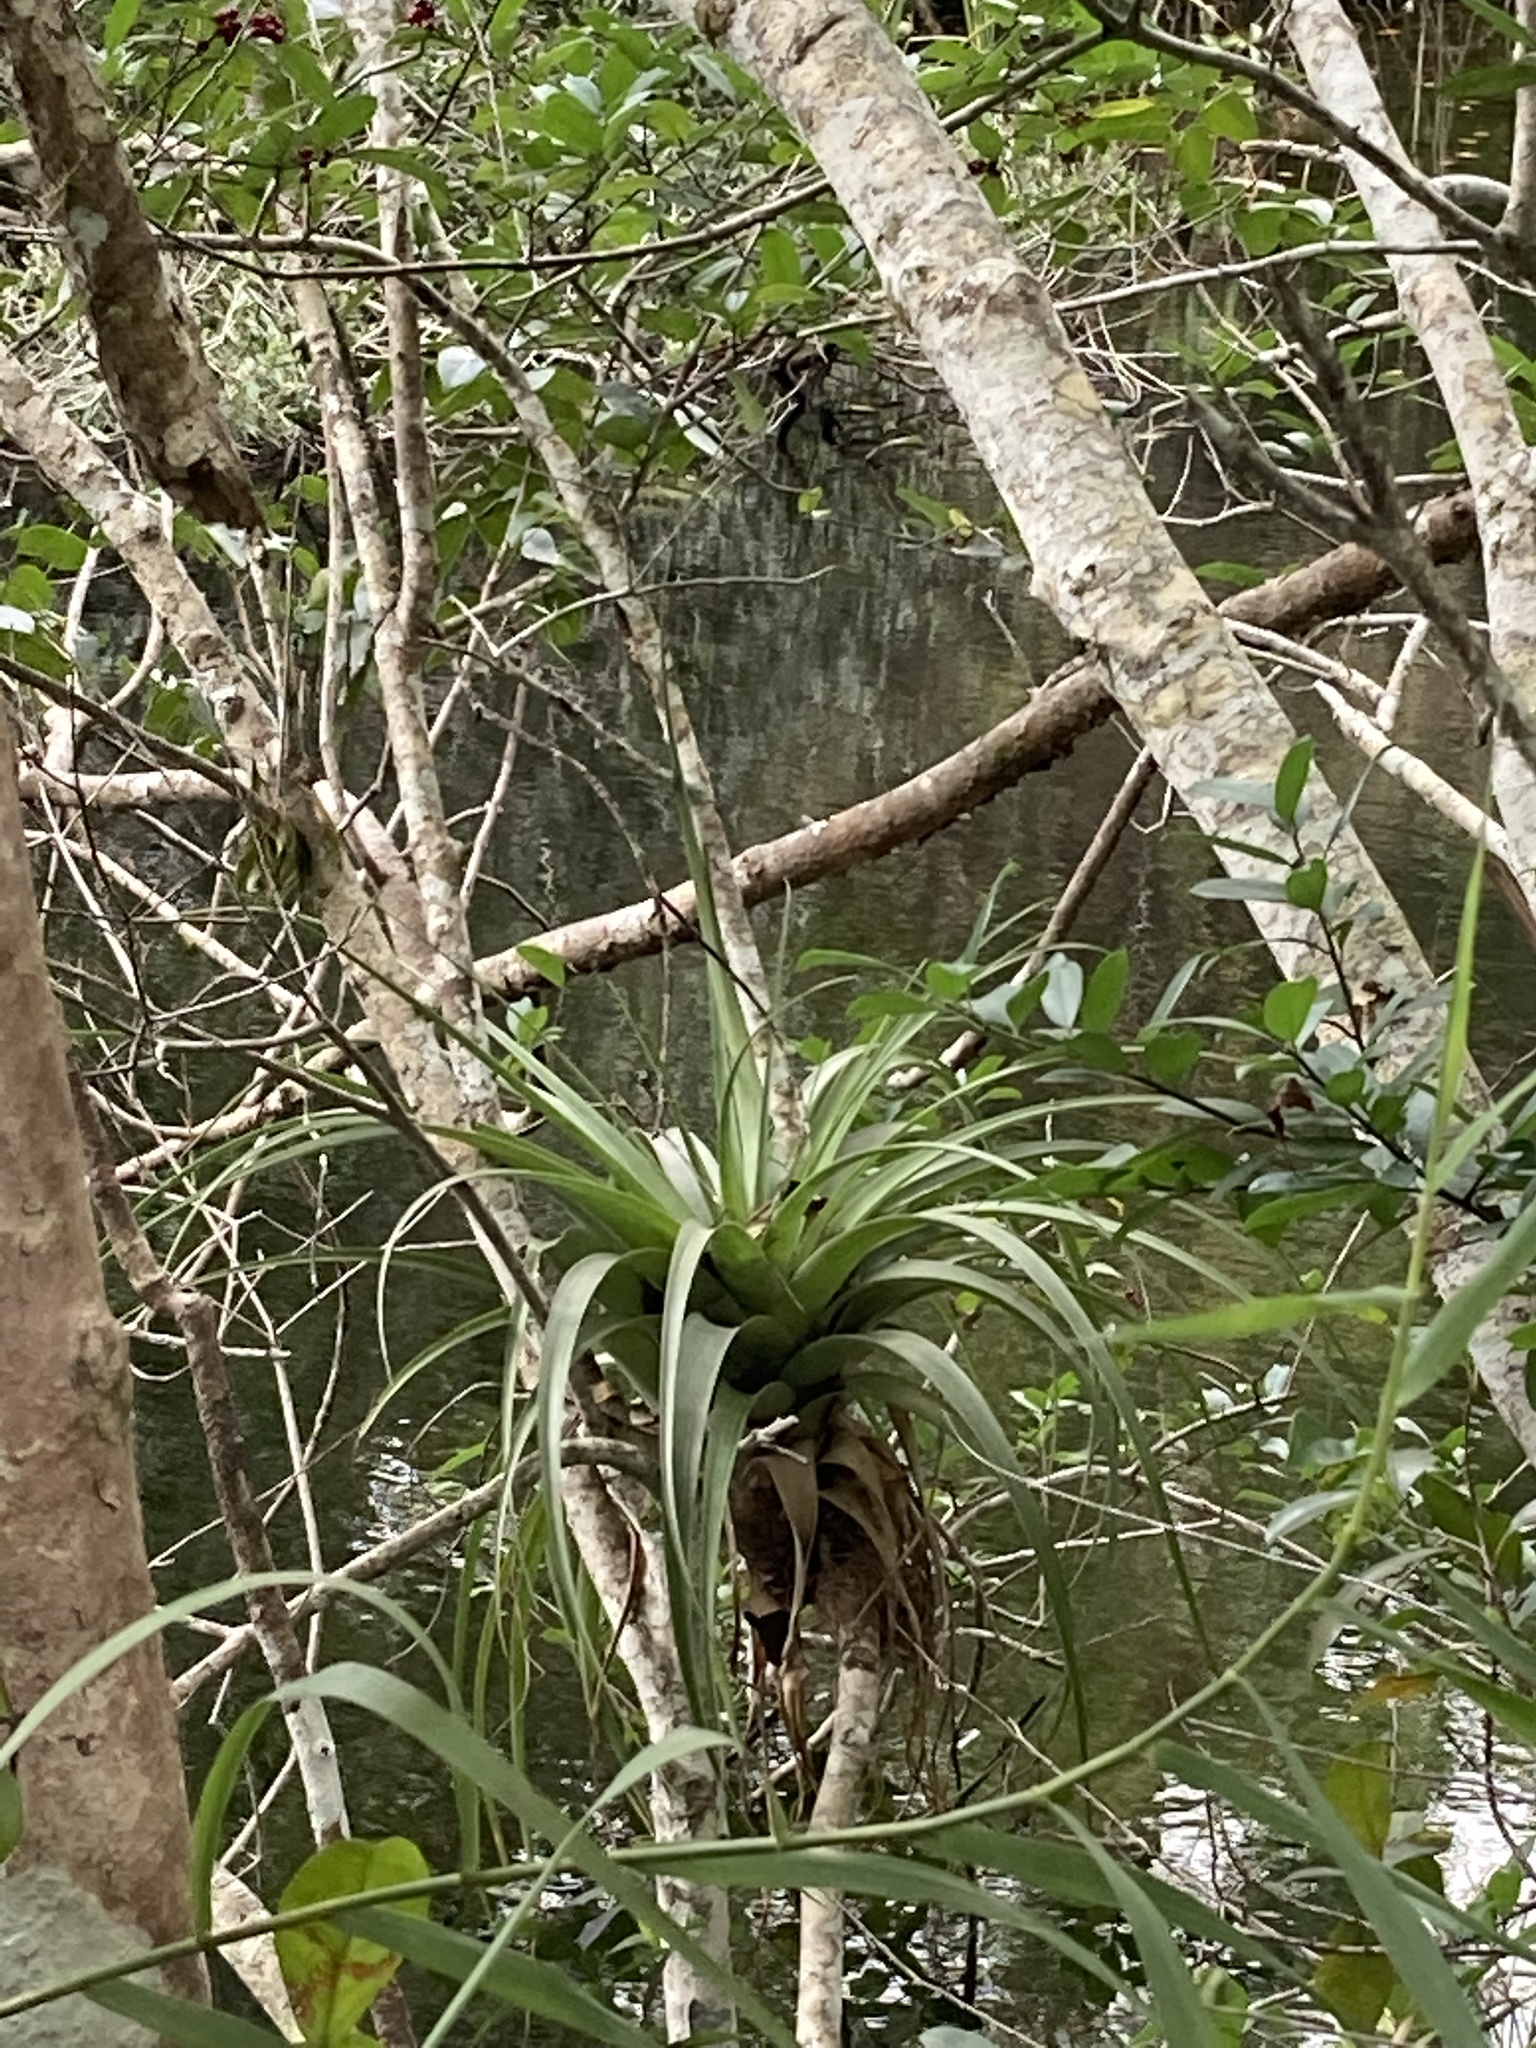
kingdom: Plantae
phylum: Tracheophyta
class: Liliopsida
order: Poales
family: Bromeliaceae
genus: Tillandsia
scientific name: Tillandsia utriculata
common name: Wild pine
